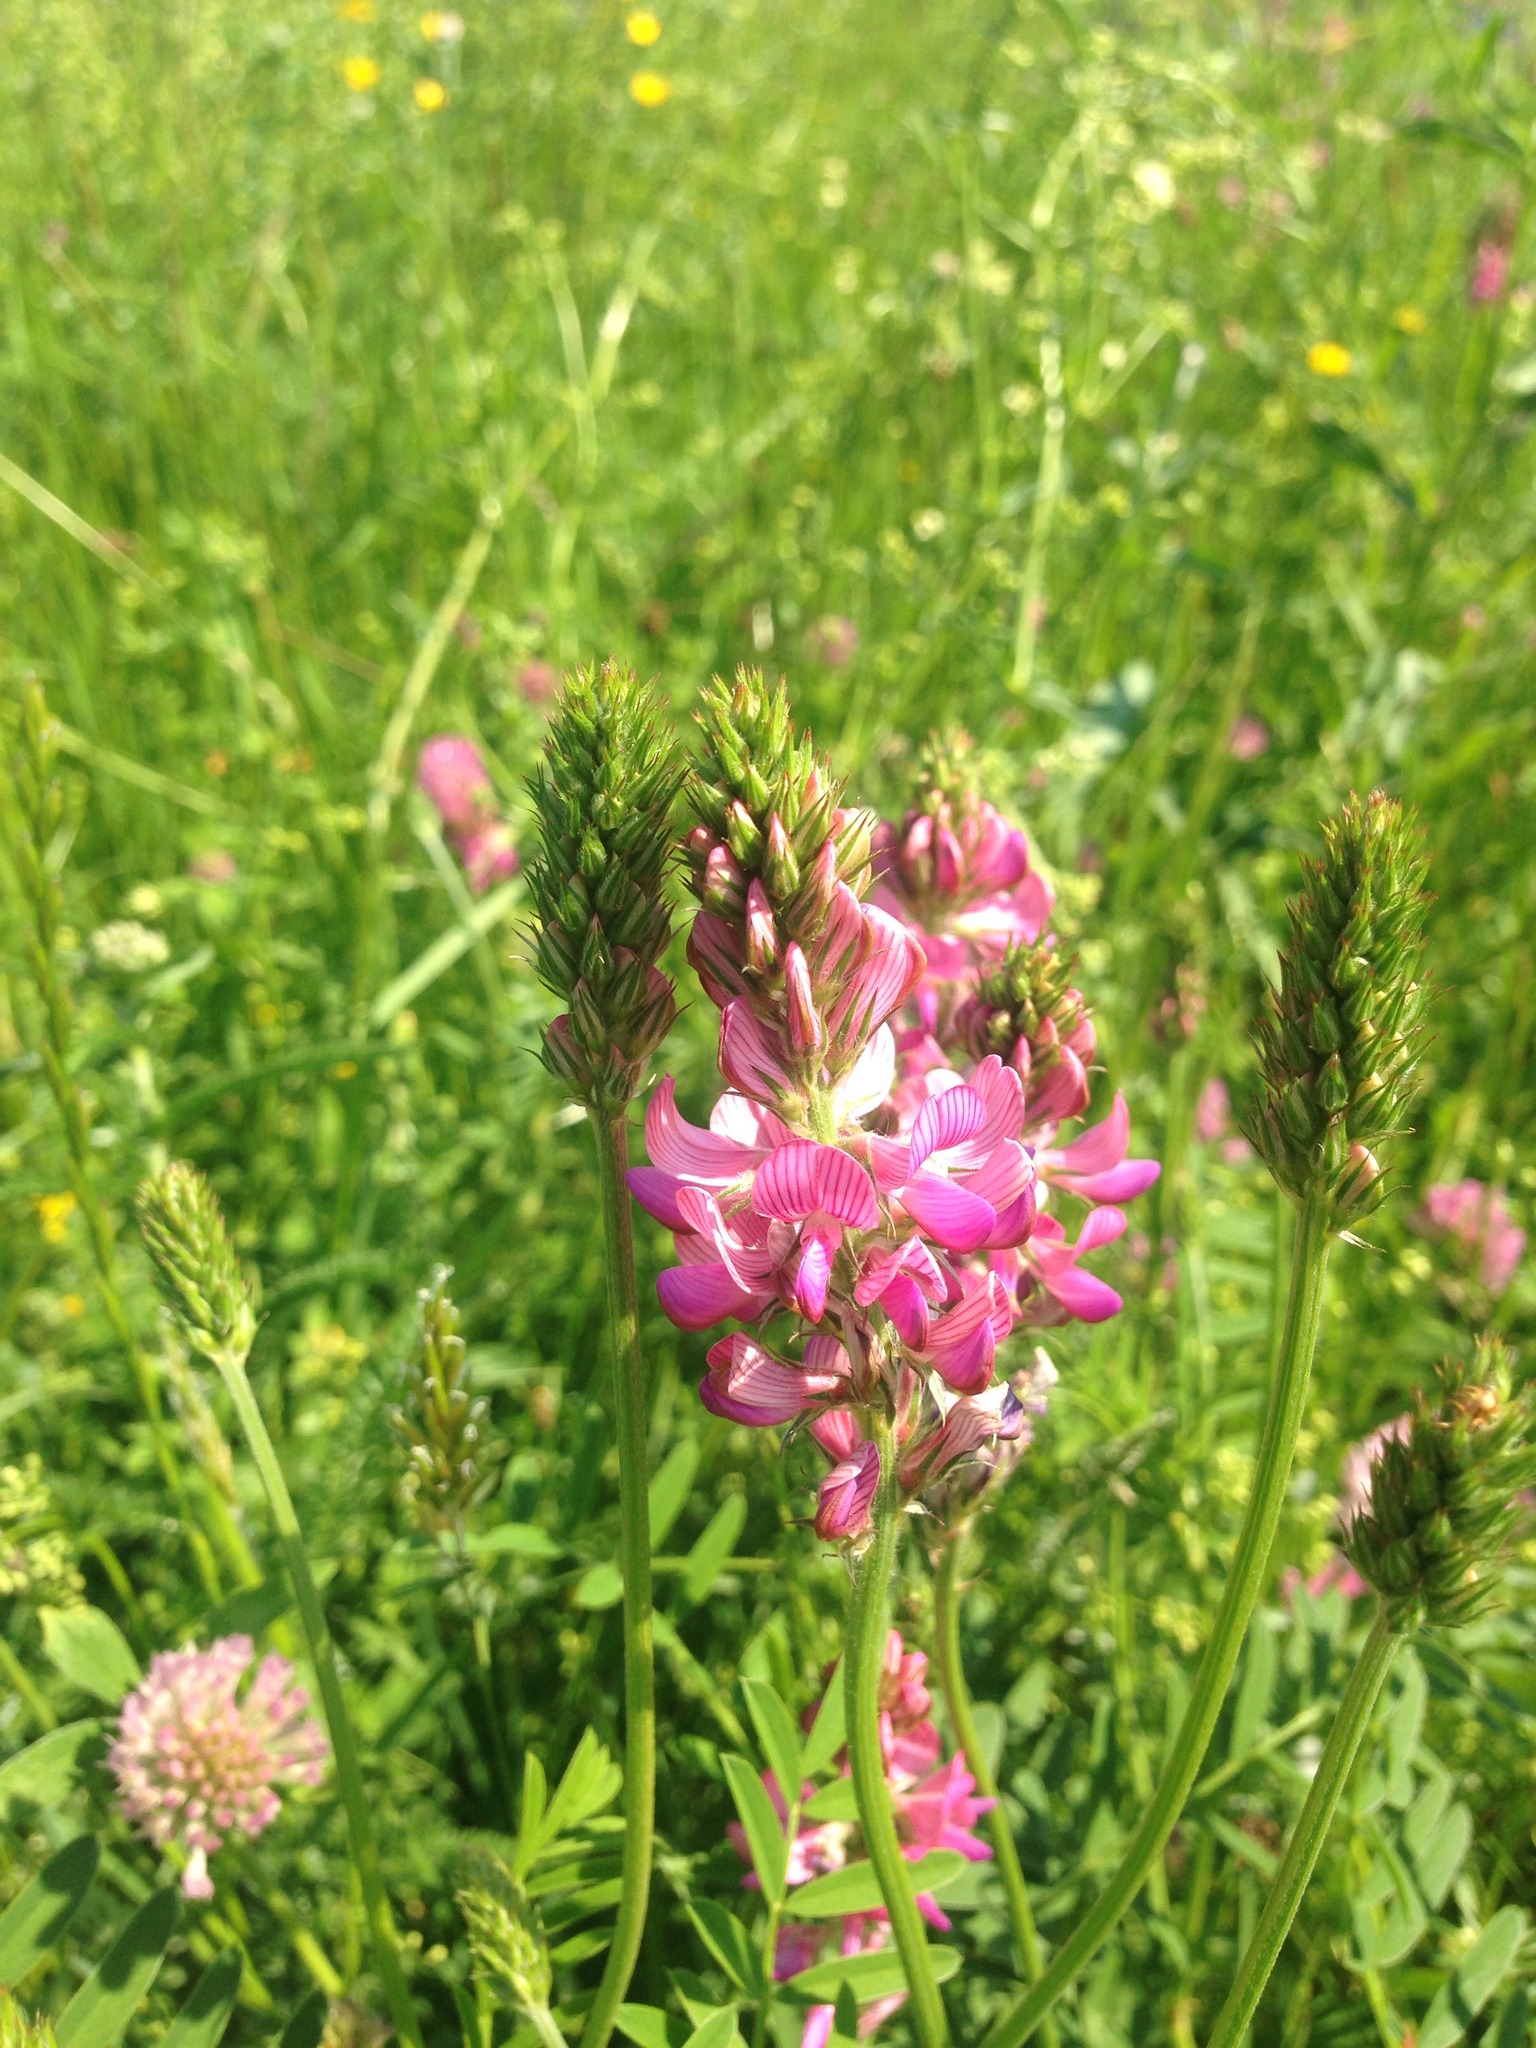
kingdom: Plantae
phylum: Tracheophyta
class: Magnoliopsida
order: Fabales
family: Fabaceae
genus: Onobrychis
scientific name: Onobrychis viciifolia
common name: Sainfoin
